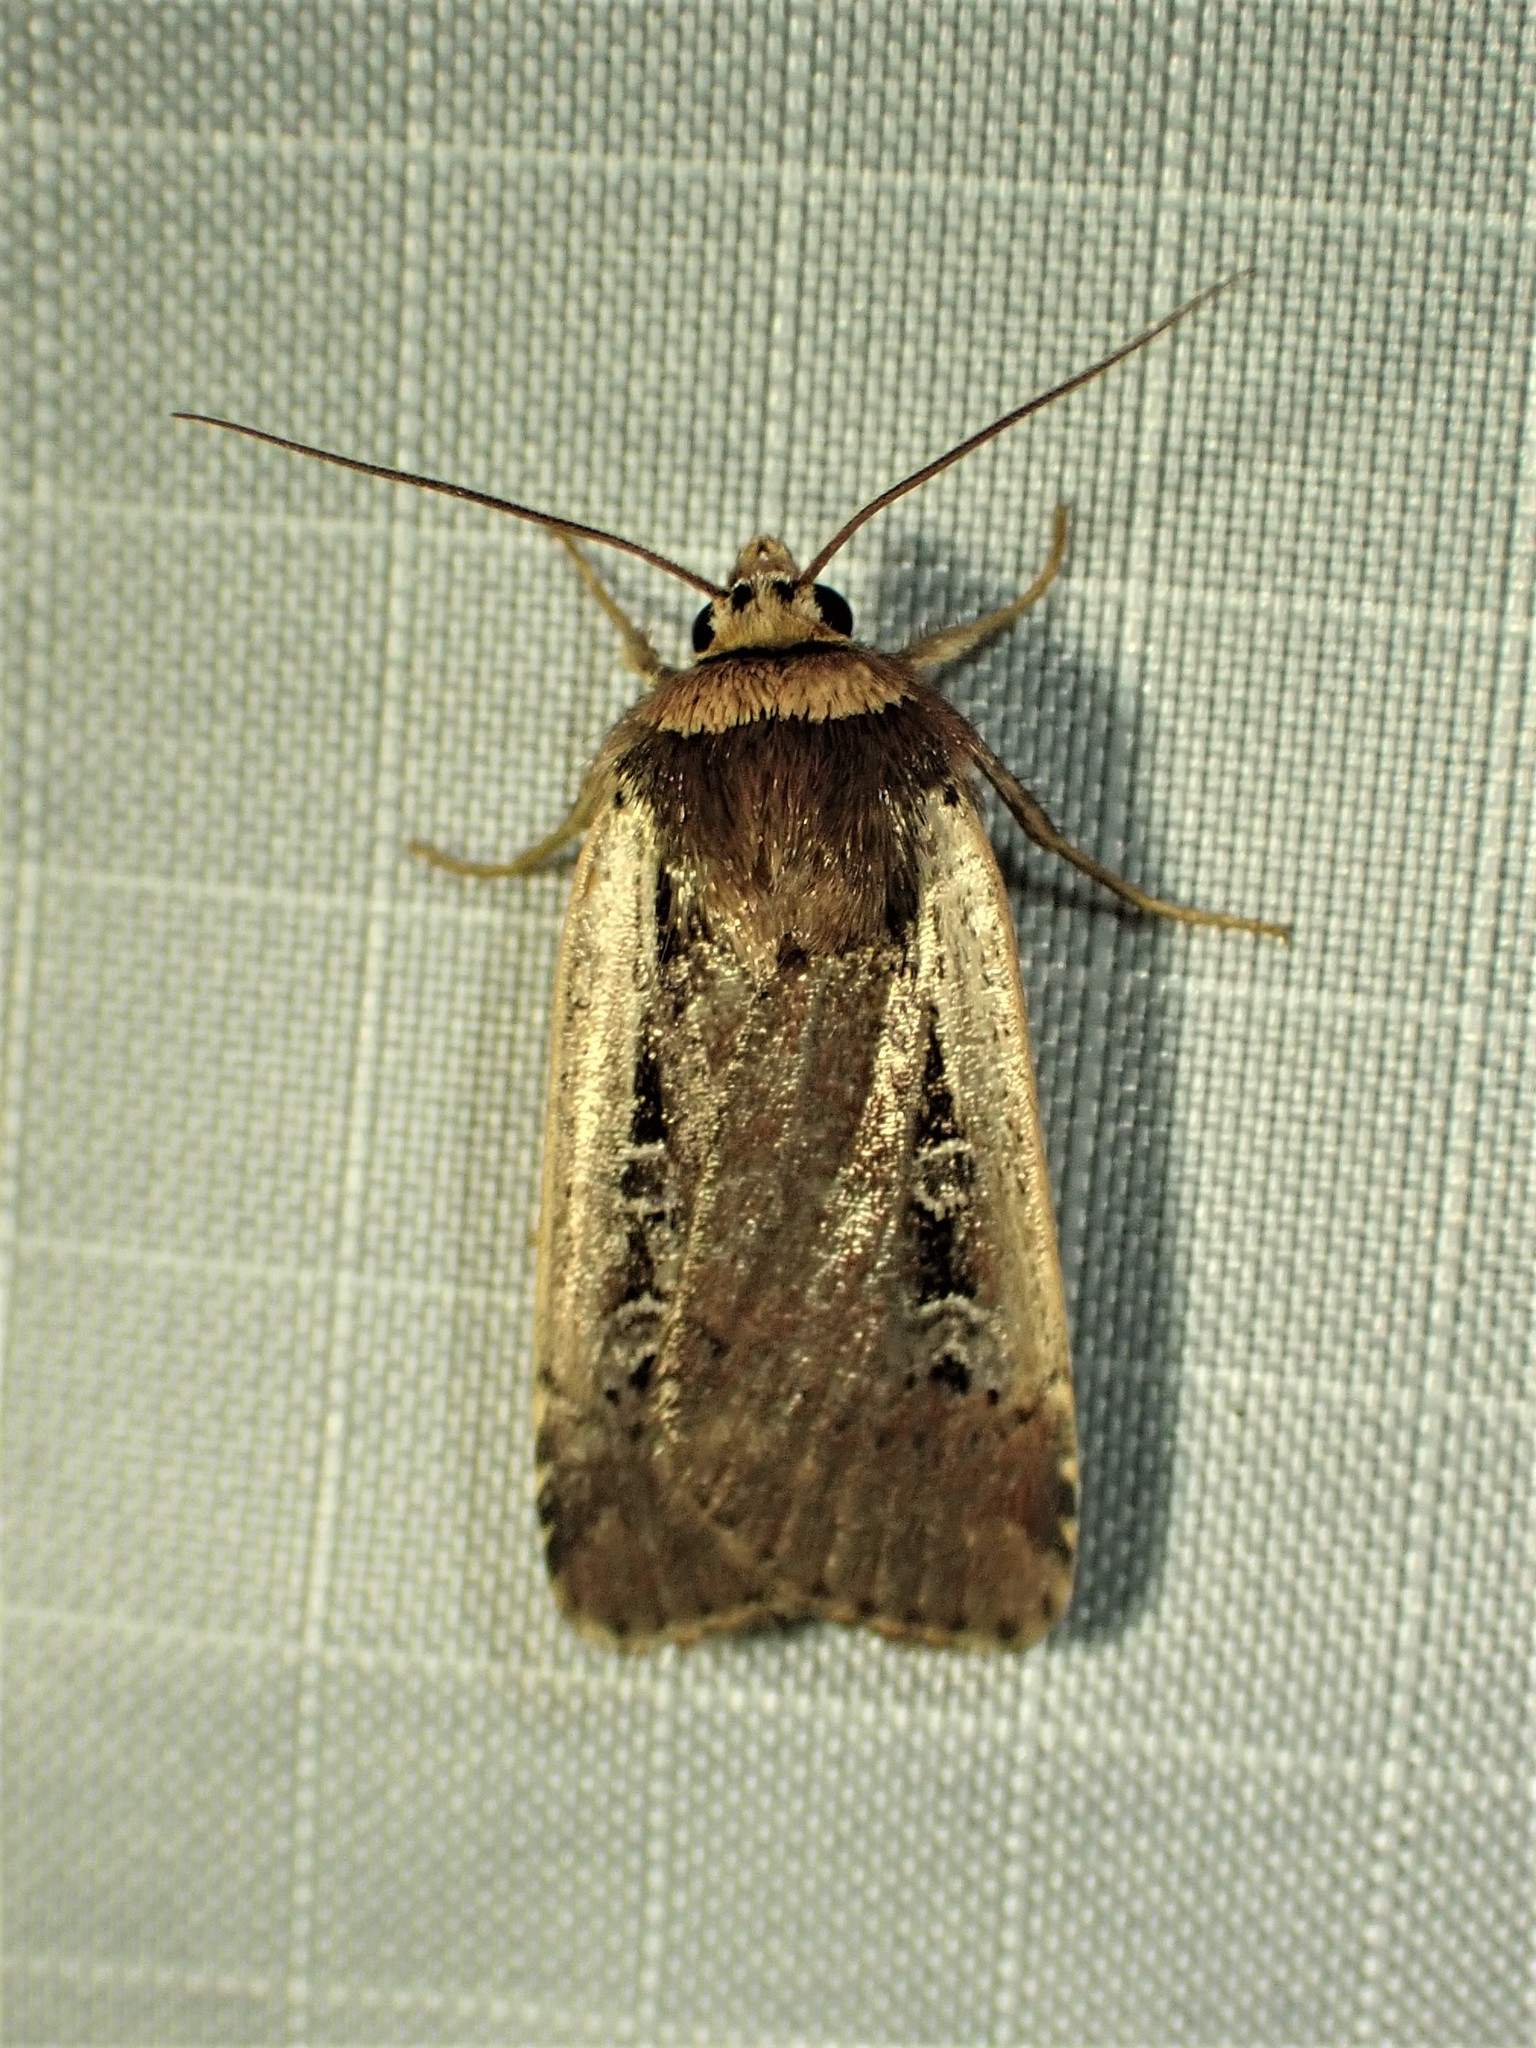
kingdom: Animalia
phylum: Arthropoda
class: Insecta
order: Lepidoptera
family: Noctuidae
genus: Ochropleura
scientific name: Ochropleura implecta
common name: Flame-shouldered dart
